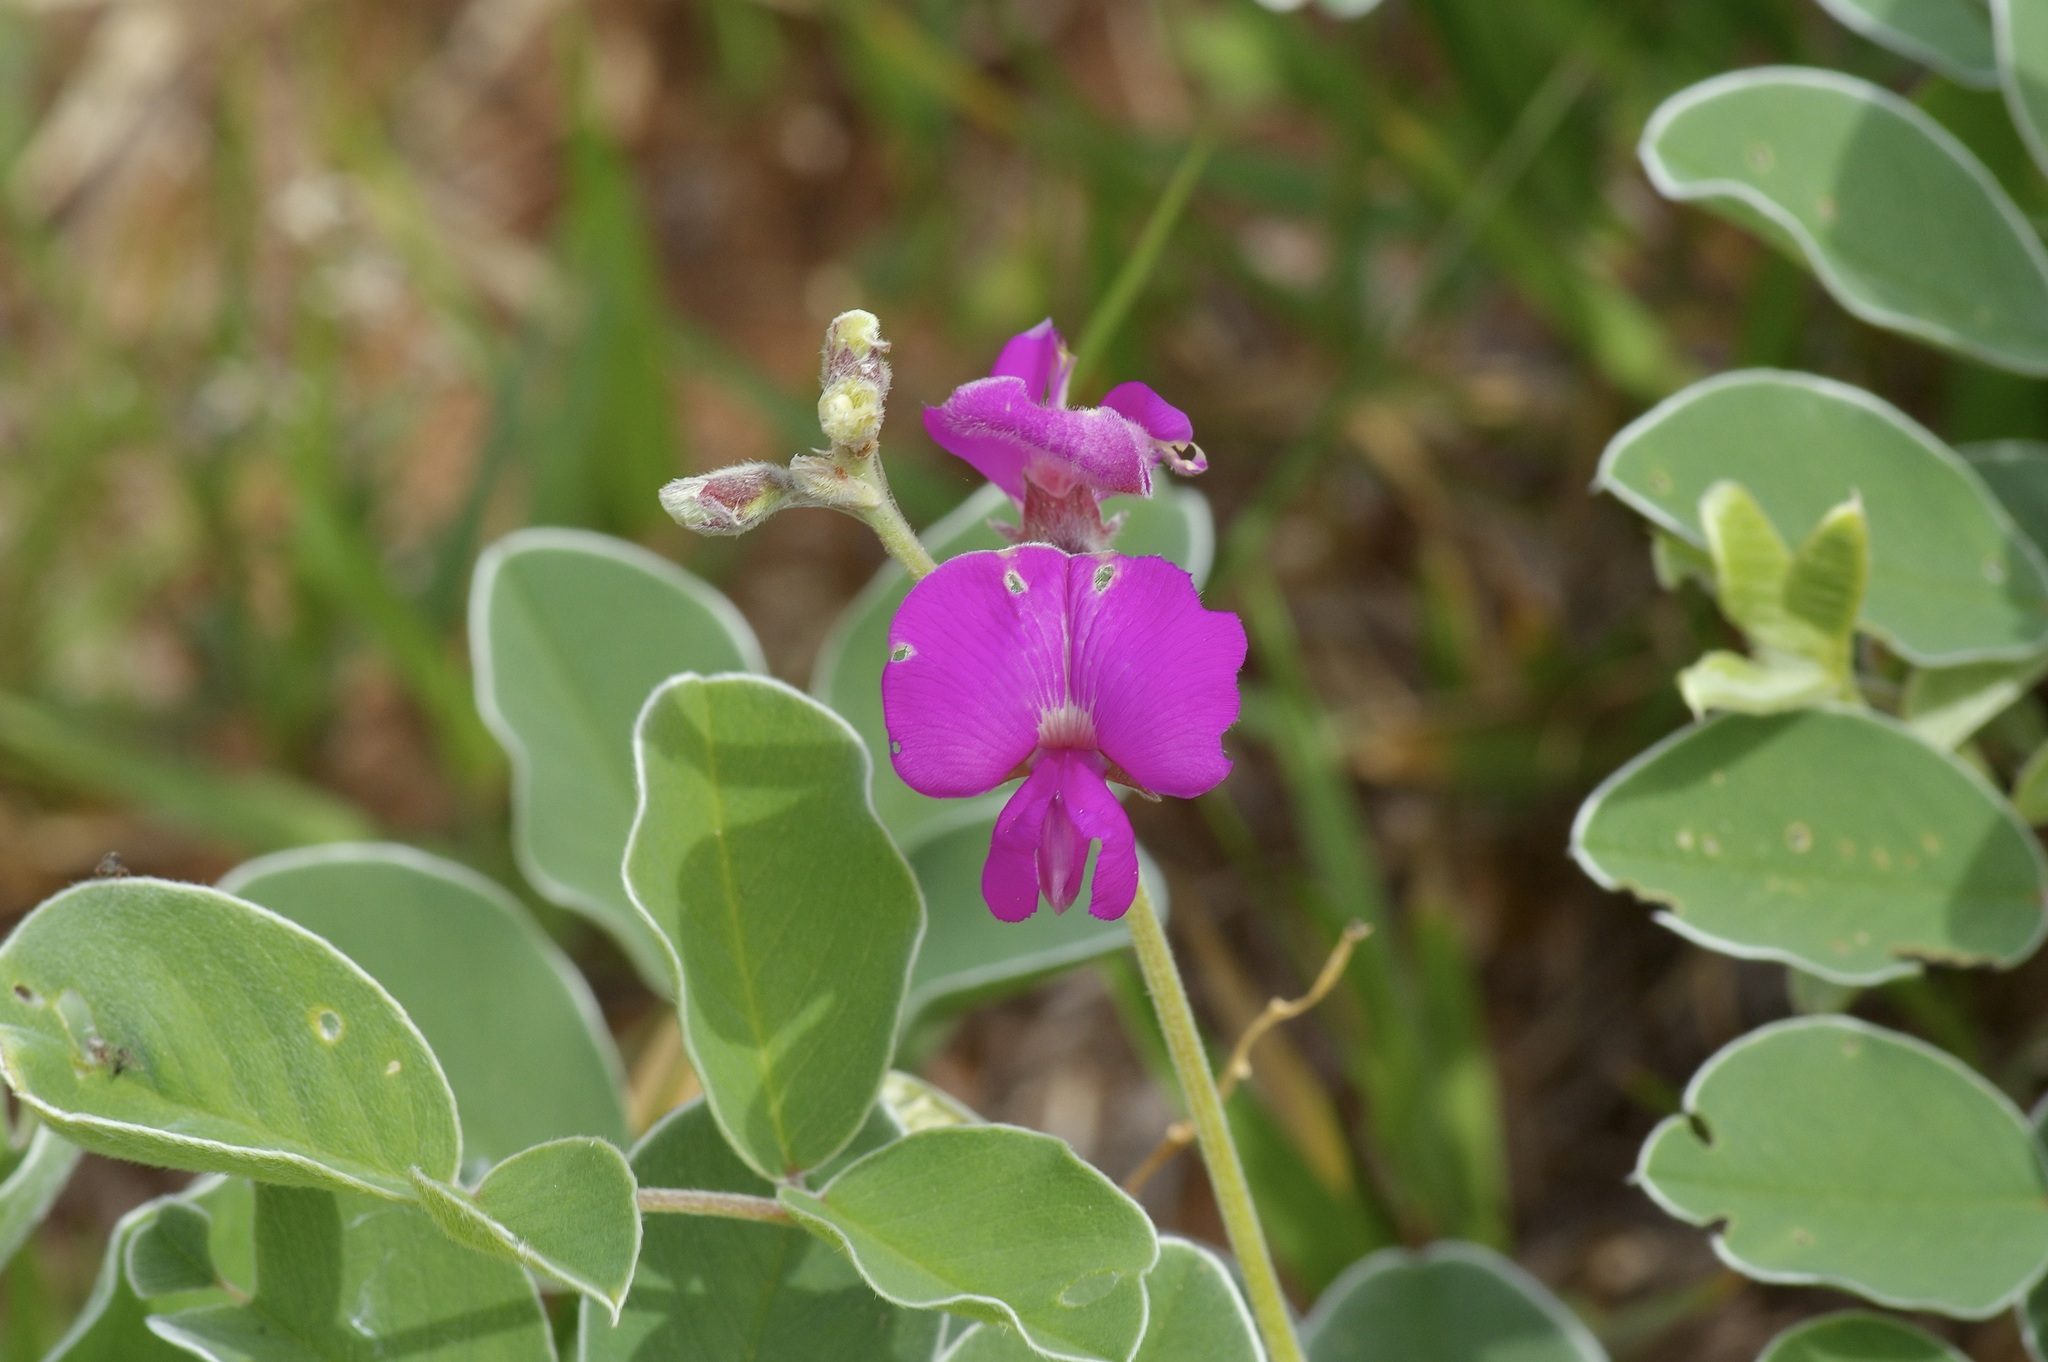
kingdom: Plantae
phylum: Tracheophyta
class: Magnoliopsida
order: Fabales
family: Fabaceae
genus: Tephrosia
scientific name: Tephrosia lindheimeri
